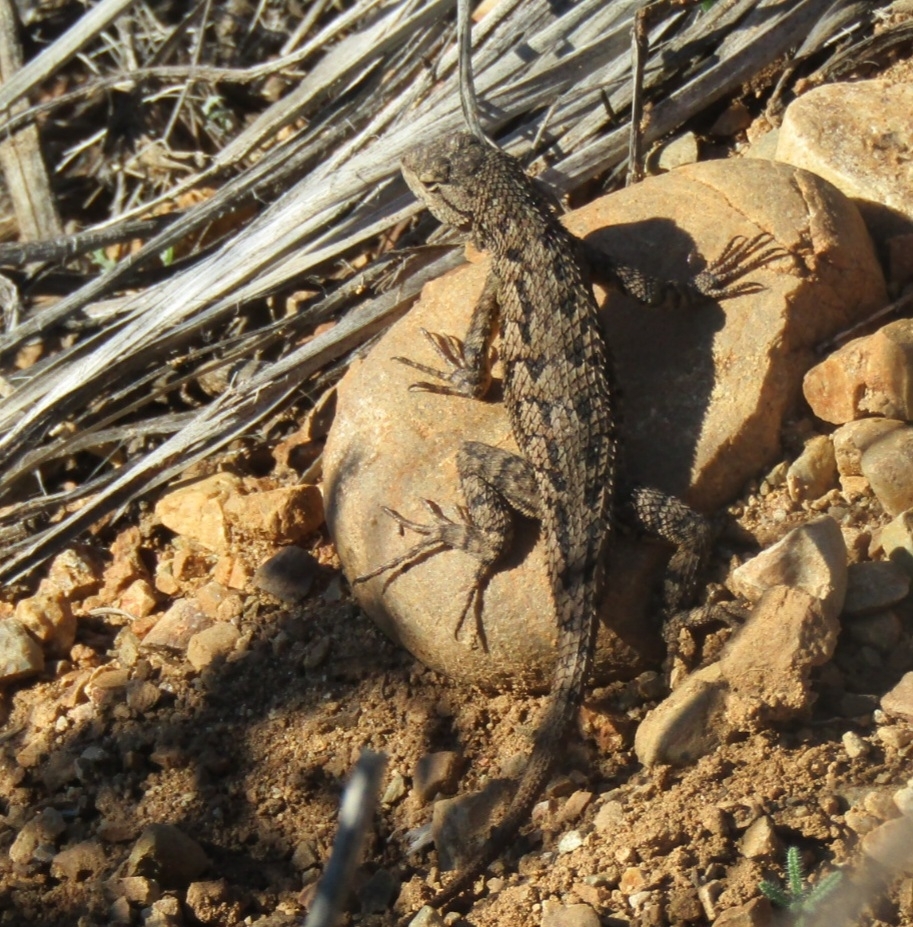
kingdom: Animalia
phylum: Chordata
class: Squamata
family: Phrynosomatidae
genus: Sceloporus
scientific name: Sceloporus occidentalis
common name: Western fence lizard
